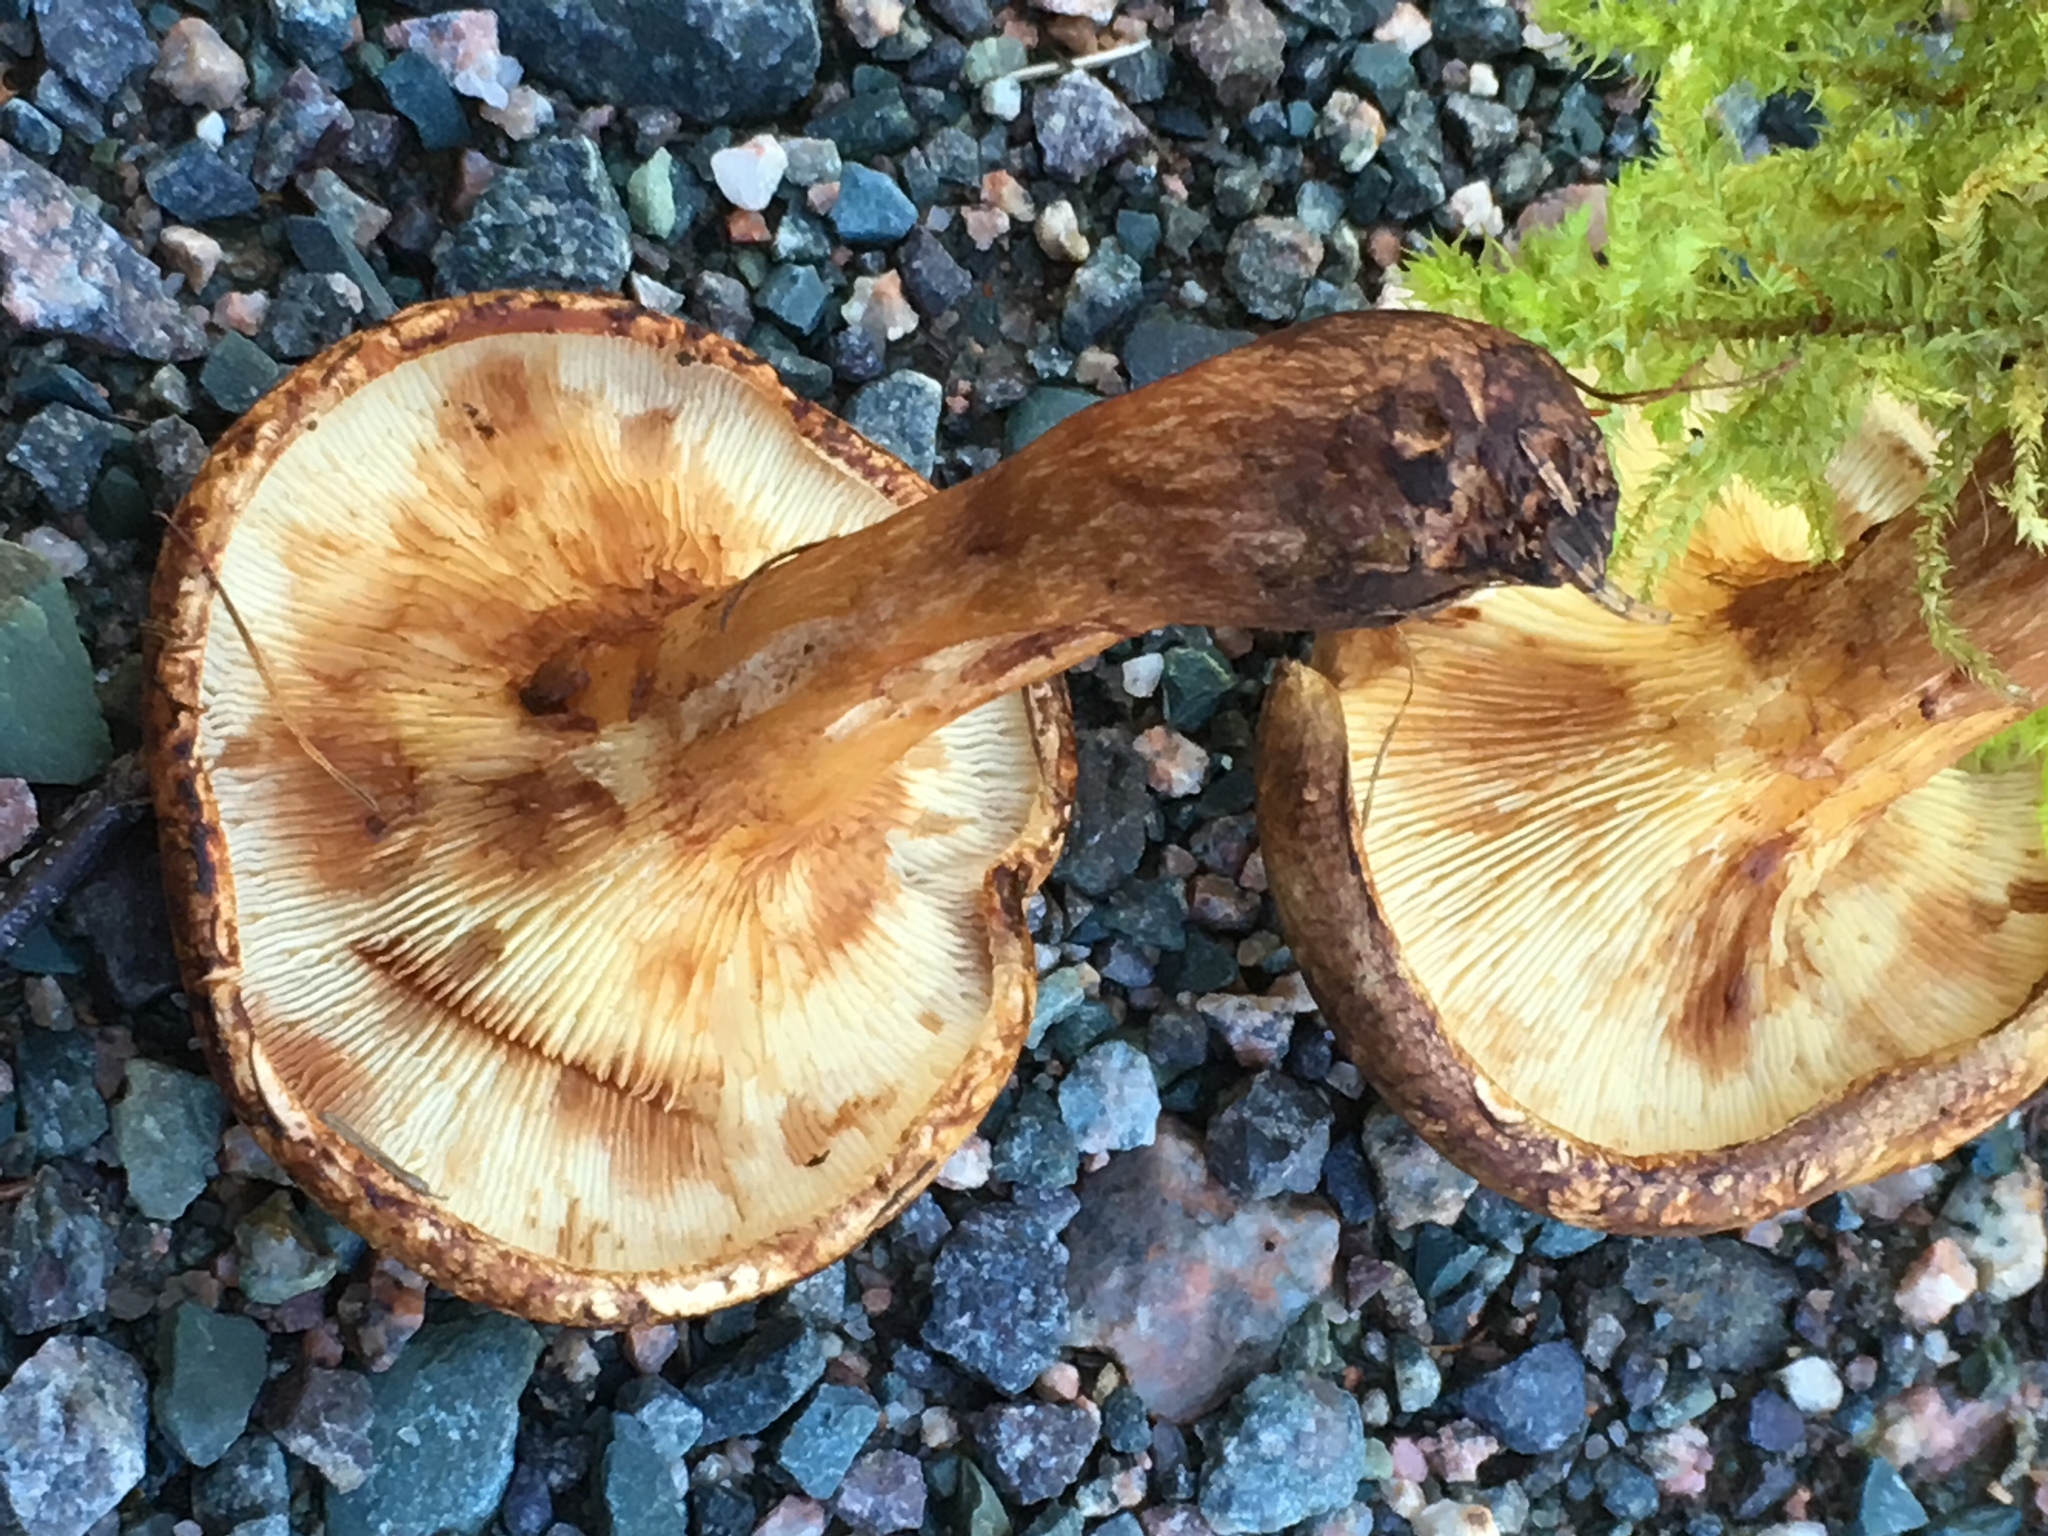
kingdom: Fungi
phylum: Basidiomycota
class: Agaricomycetes
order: Boletales
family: Paxillaceae
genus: Paxillus
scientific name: Paxillus involutus
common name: Brown roll rim
